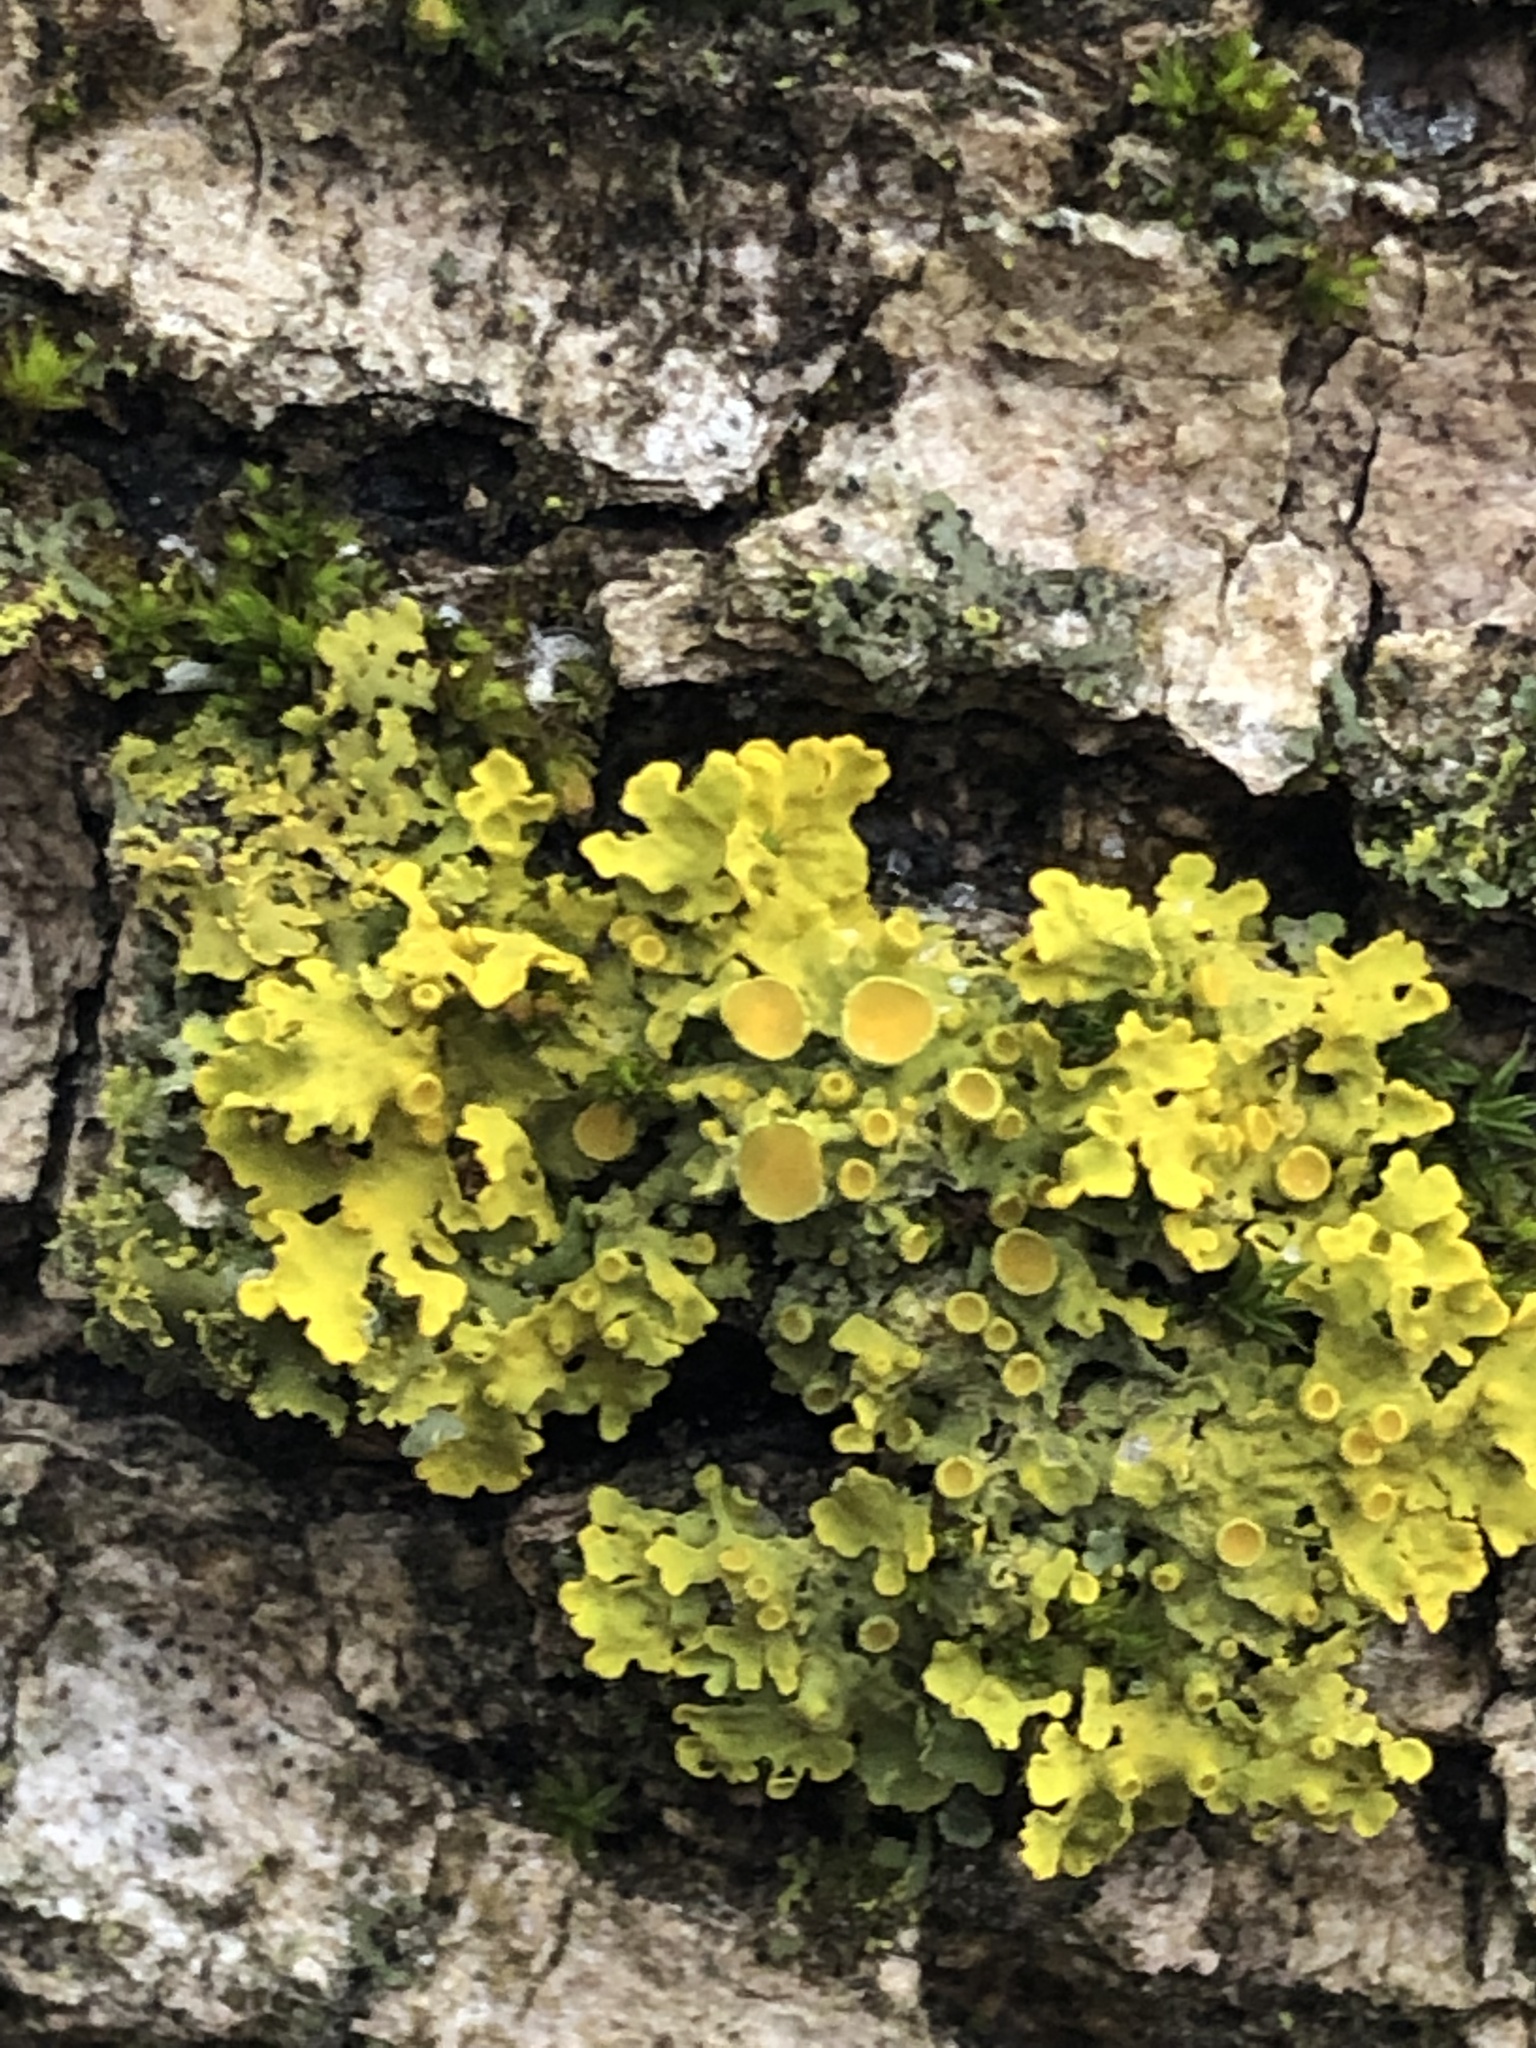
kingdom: Fungi
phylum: Ascomycota
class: Lecanoromycetes
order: Teloschistales
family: Teloschistaceae
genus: Xanthoria
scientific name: Xanthoria parietina
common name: Common orange lichen
